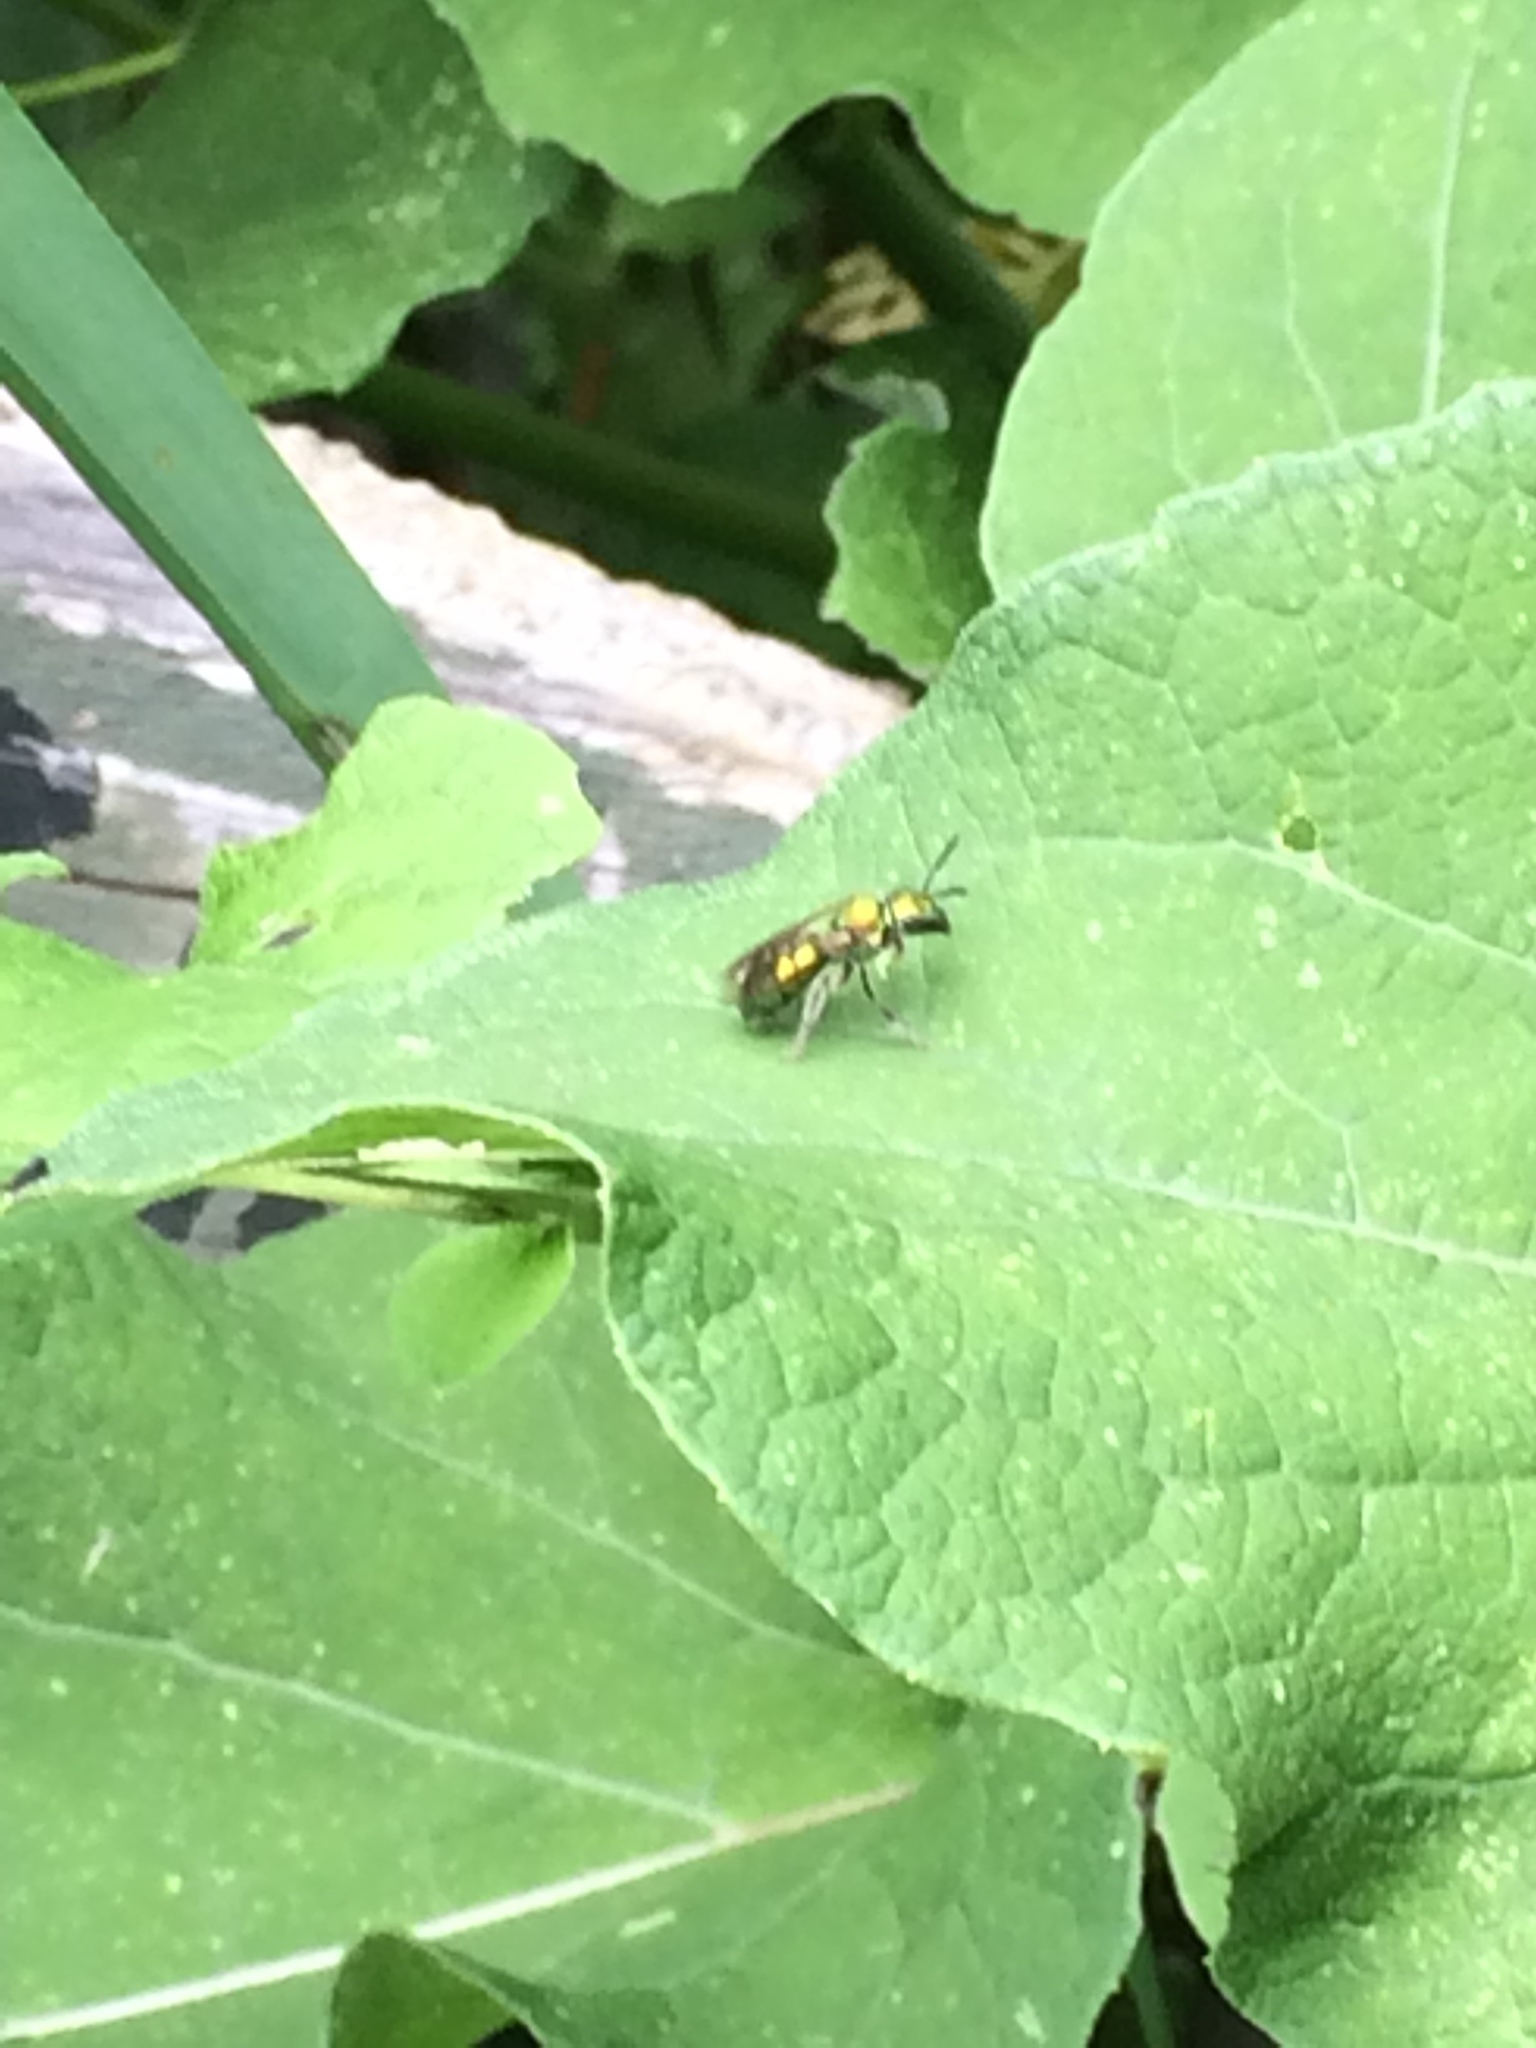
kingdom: Animalia
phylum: Arthropoda
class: Insecta
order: Hymenoptera
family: Halictidae
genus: Augochlora
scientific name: Augochlora pura
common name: Pure green sweat bee
